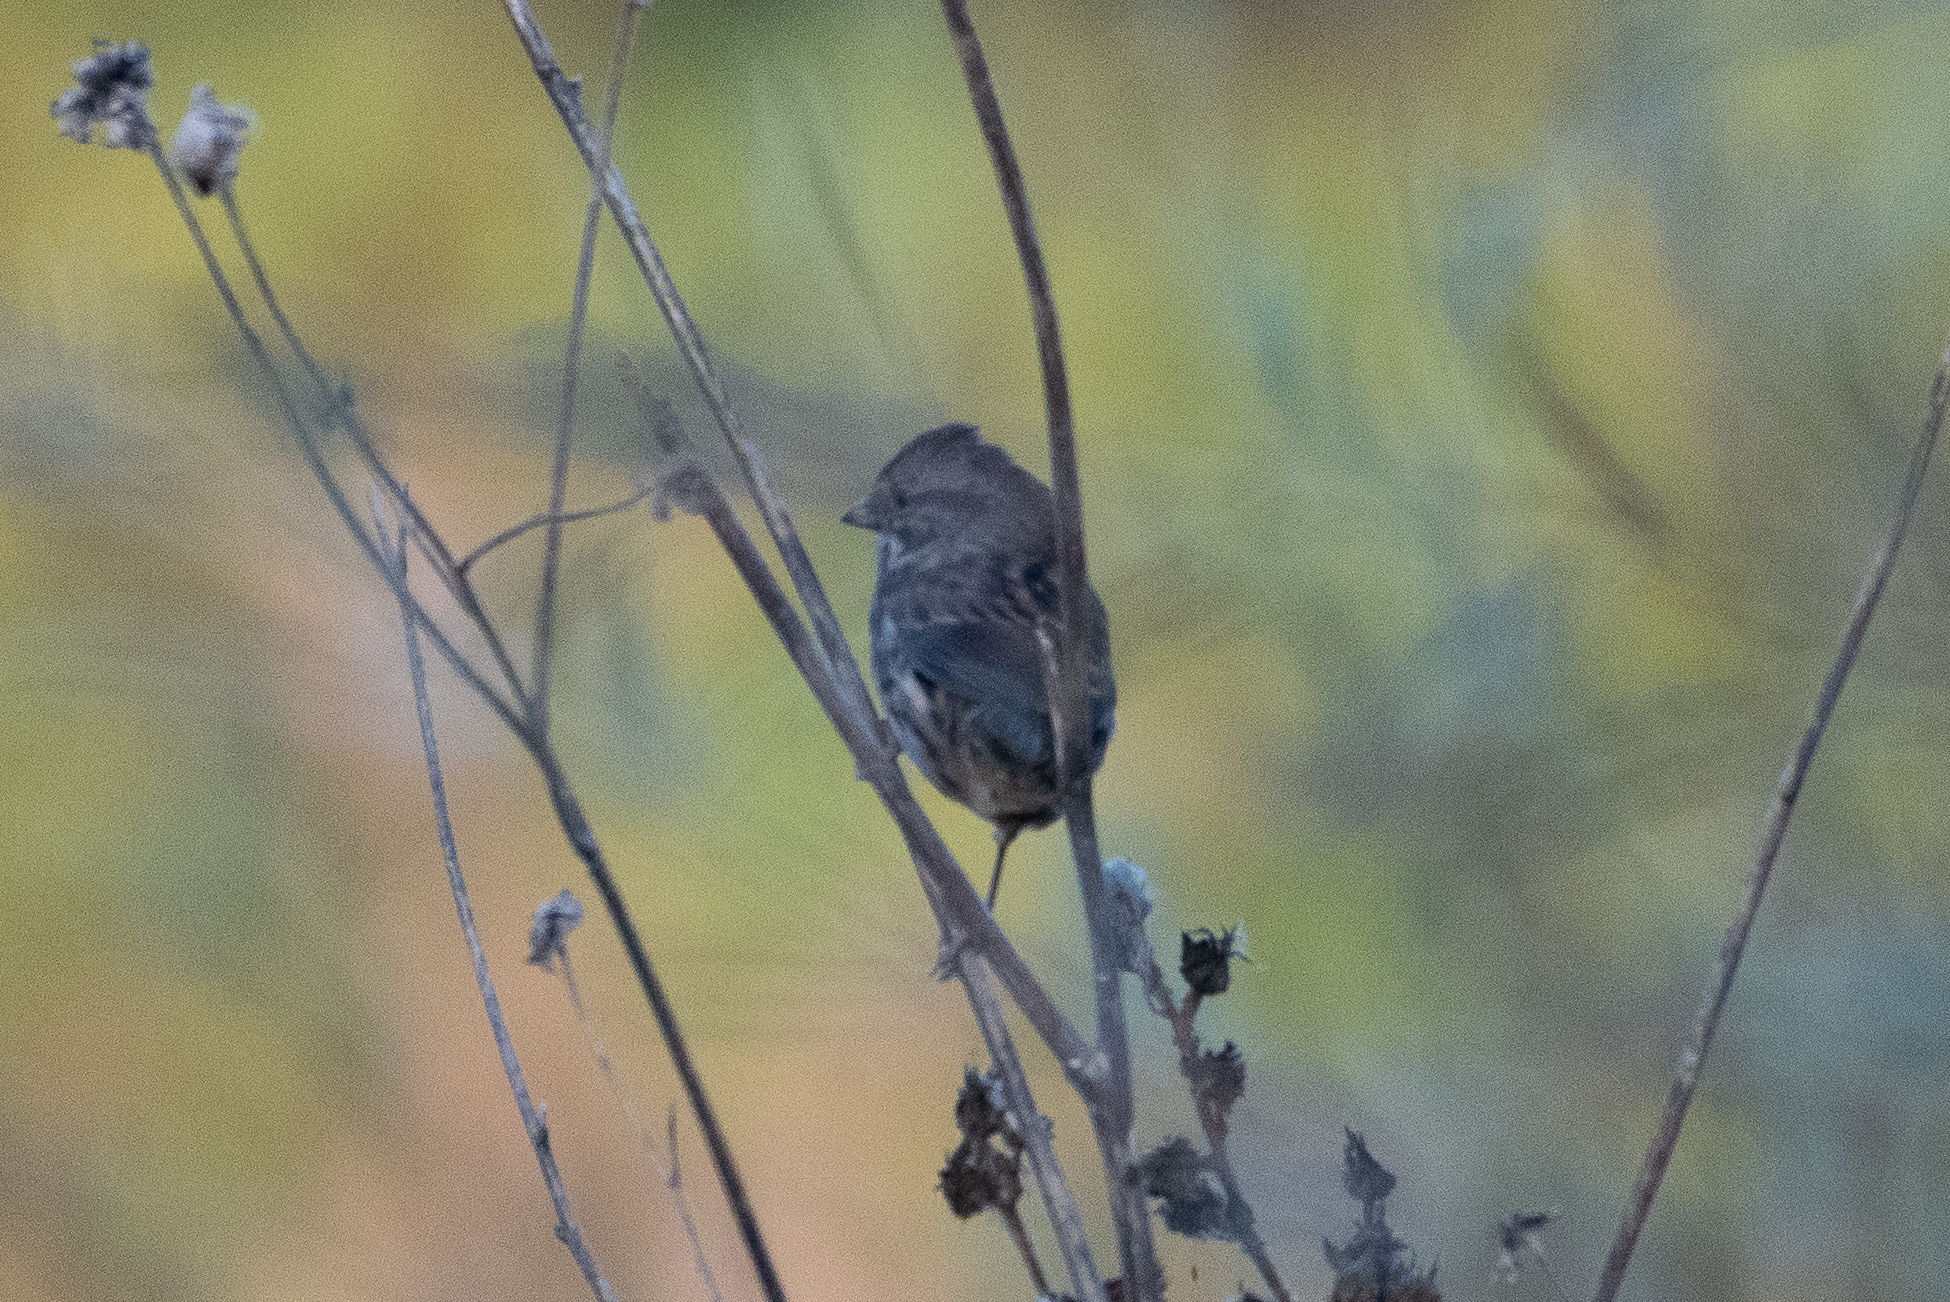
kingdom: Animalia
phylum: Chordata
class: Aves
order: Passeriformes
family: Passerellidae
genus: Melospiza
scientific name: Melospiza melodia
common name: Song sparrow
